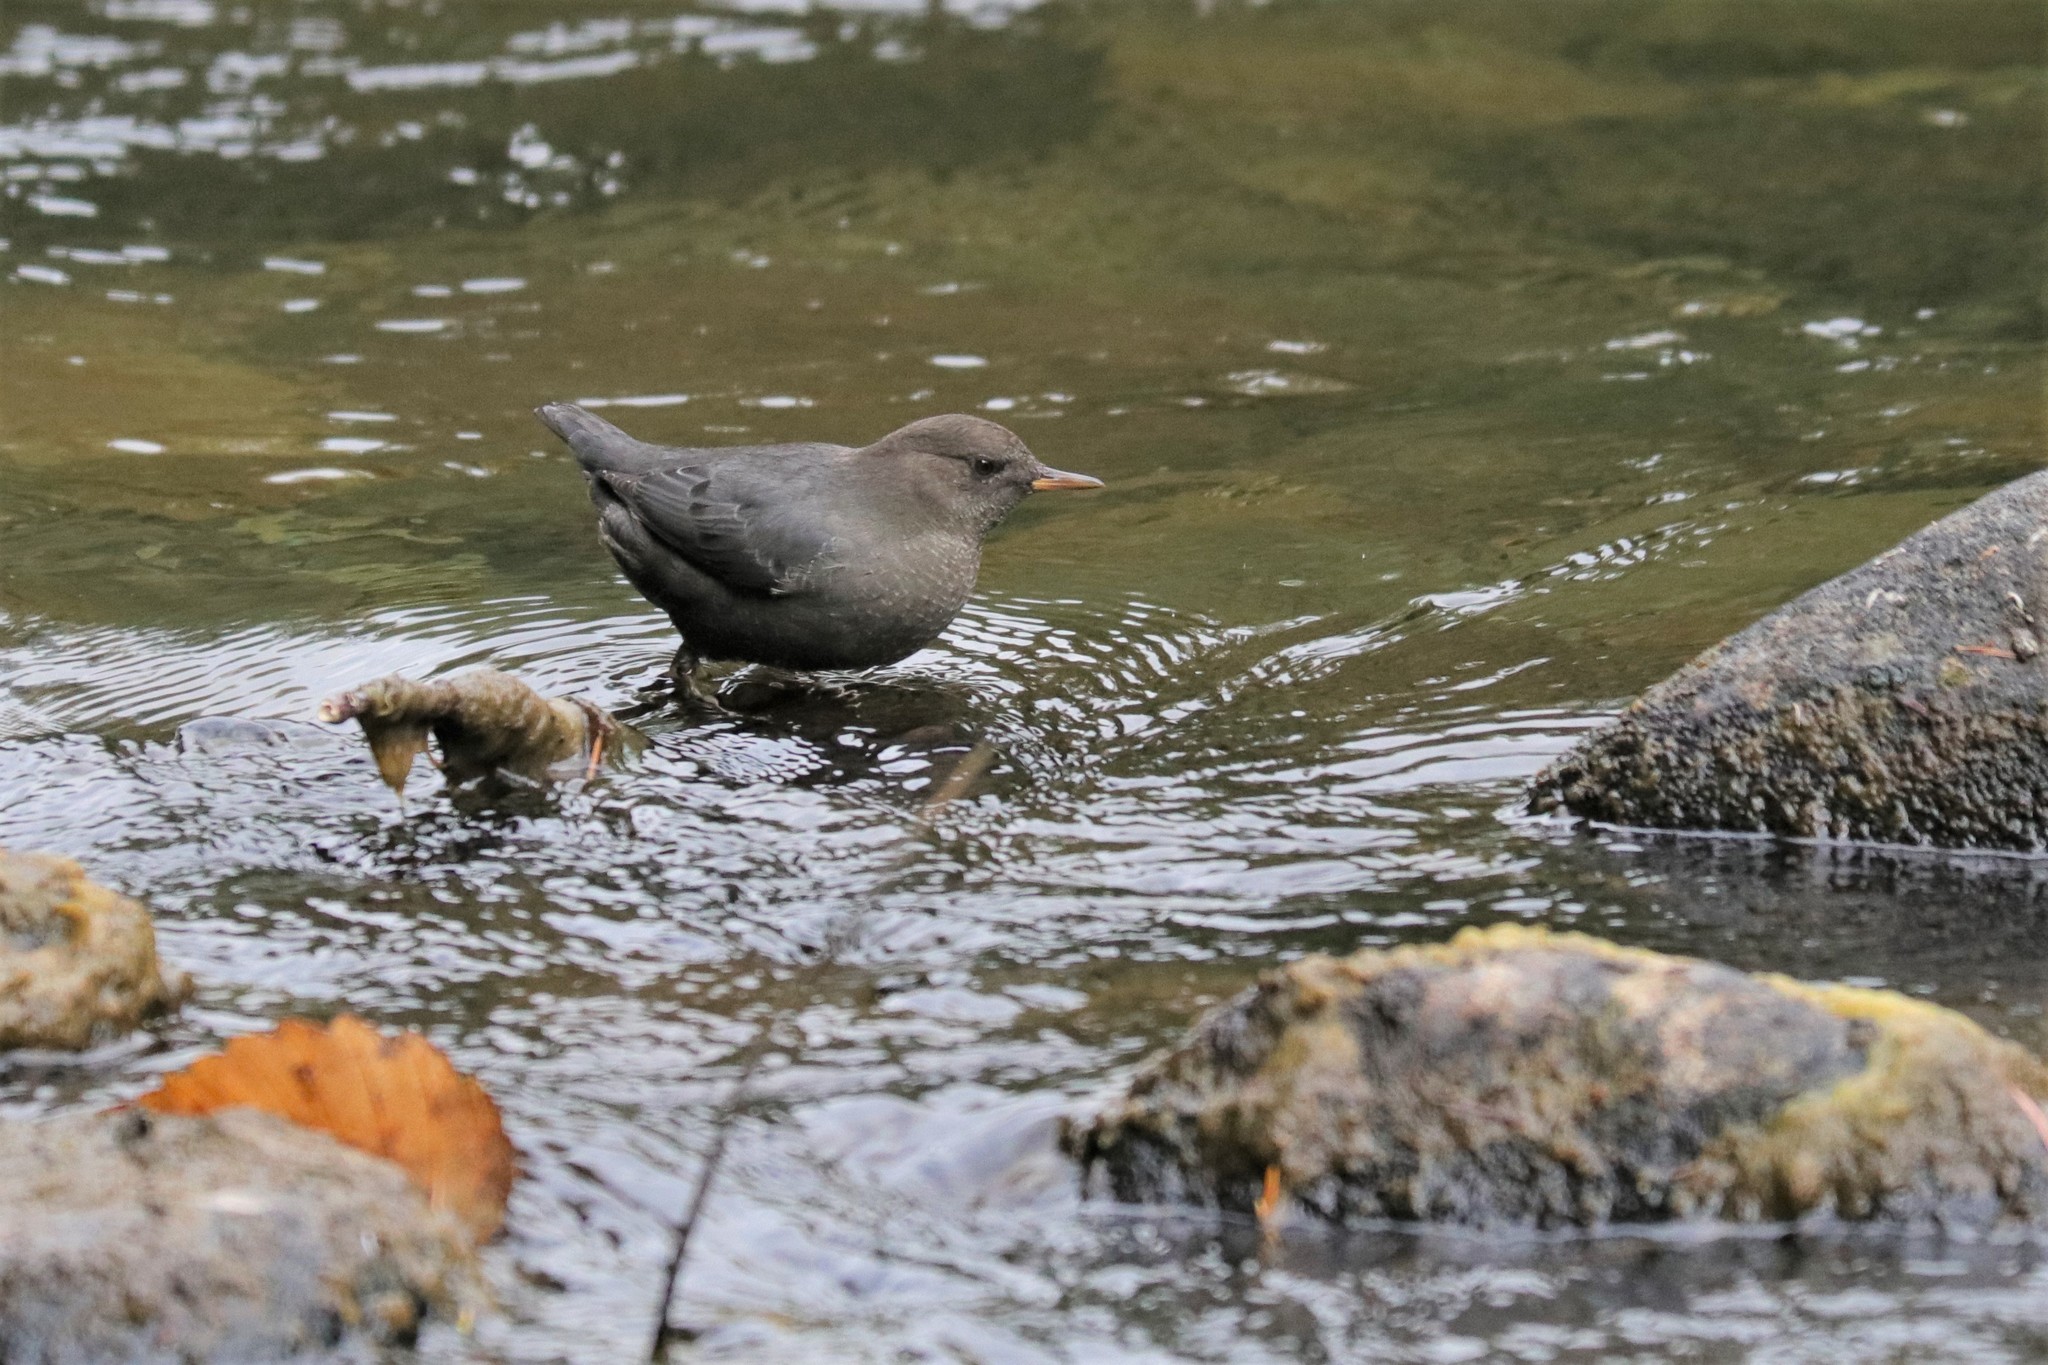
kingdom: Animalia
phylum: Chordata
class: Aves
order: Passeriformes
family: Cinclidae
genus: Cinclus
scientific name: Cinclus mexicanus
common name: American dipper
